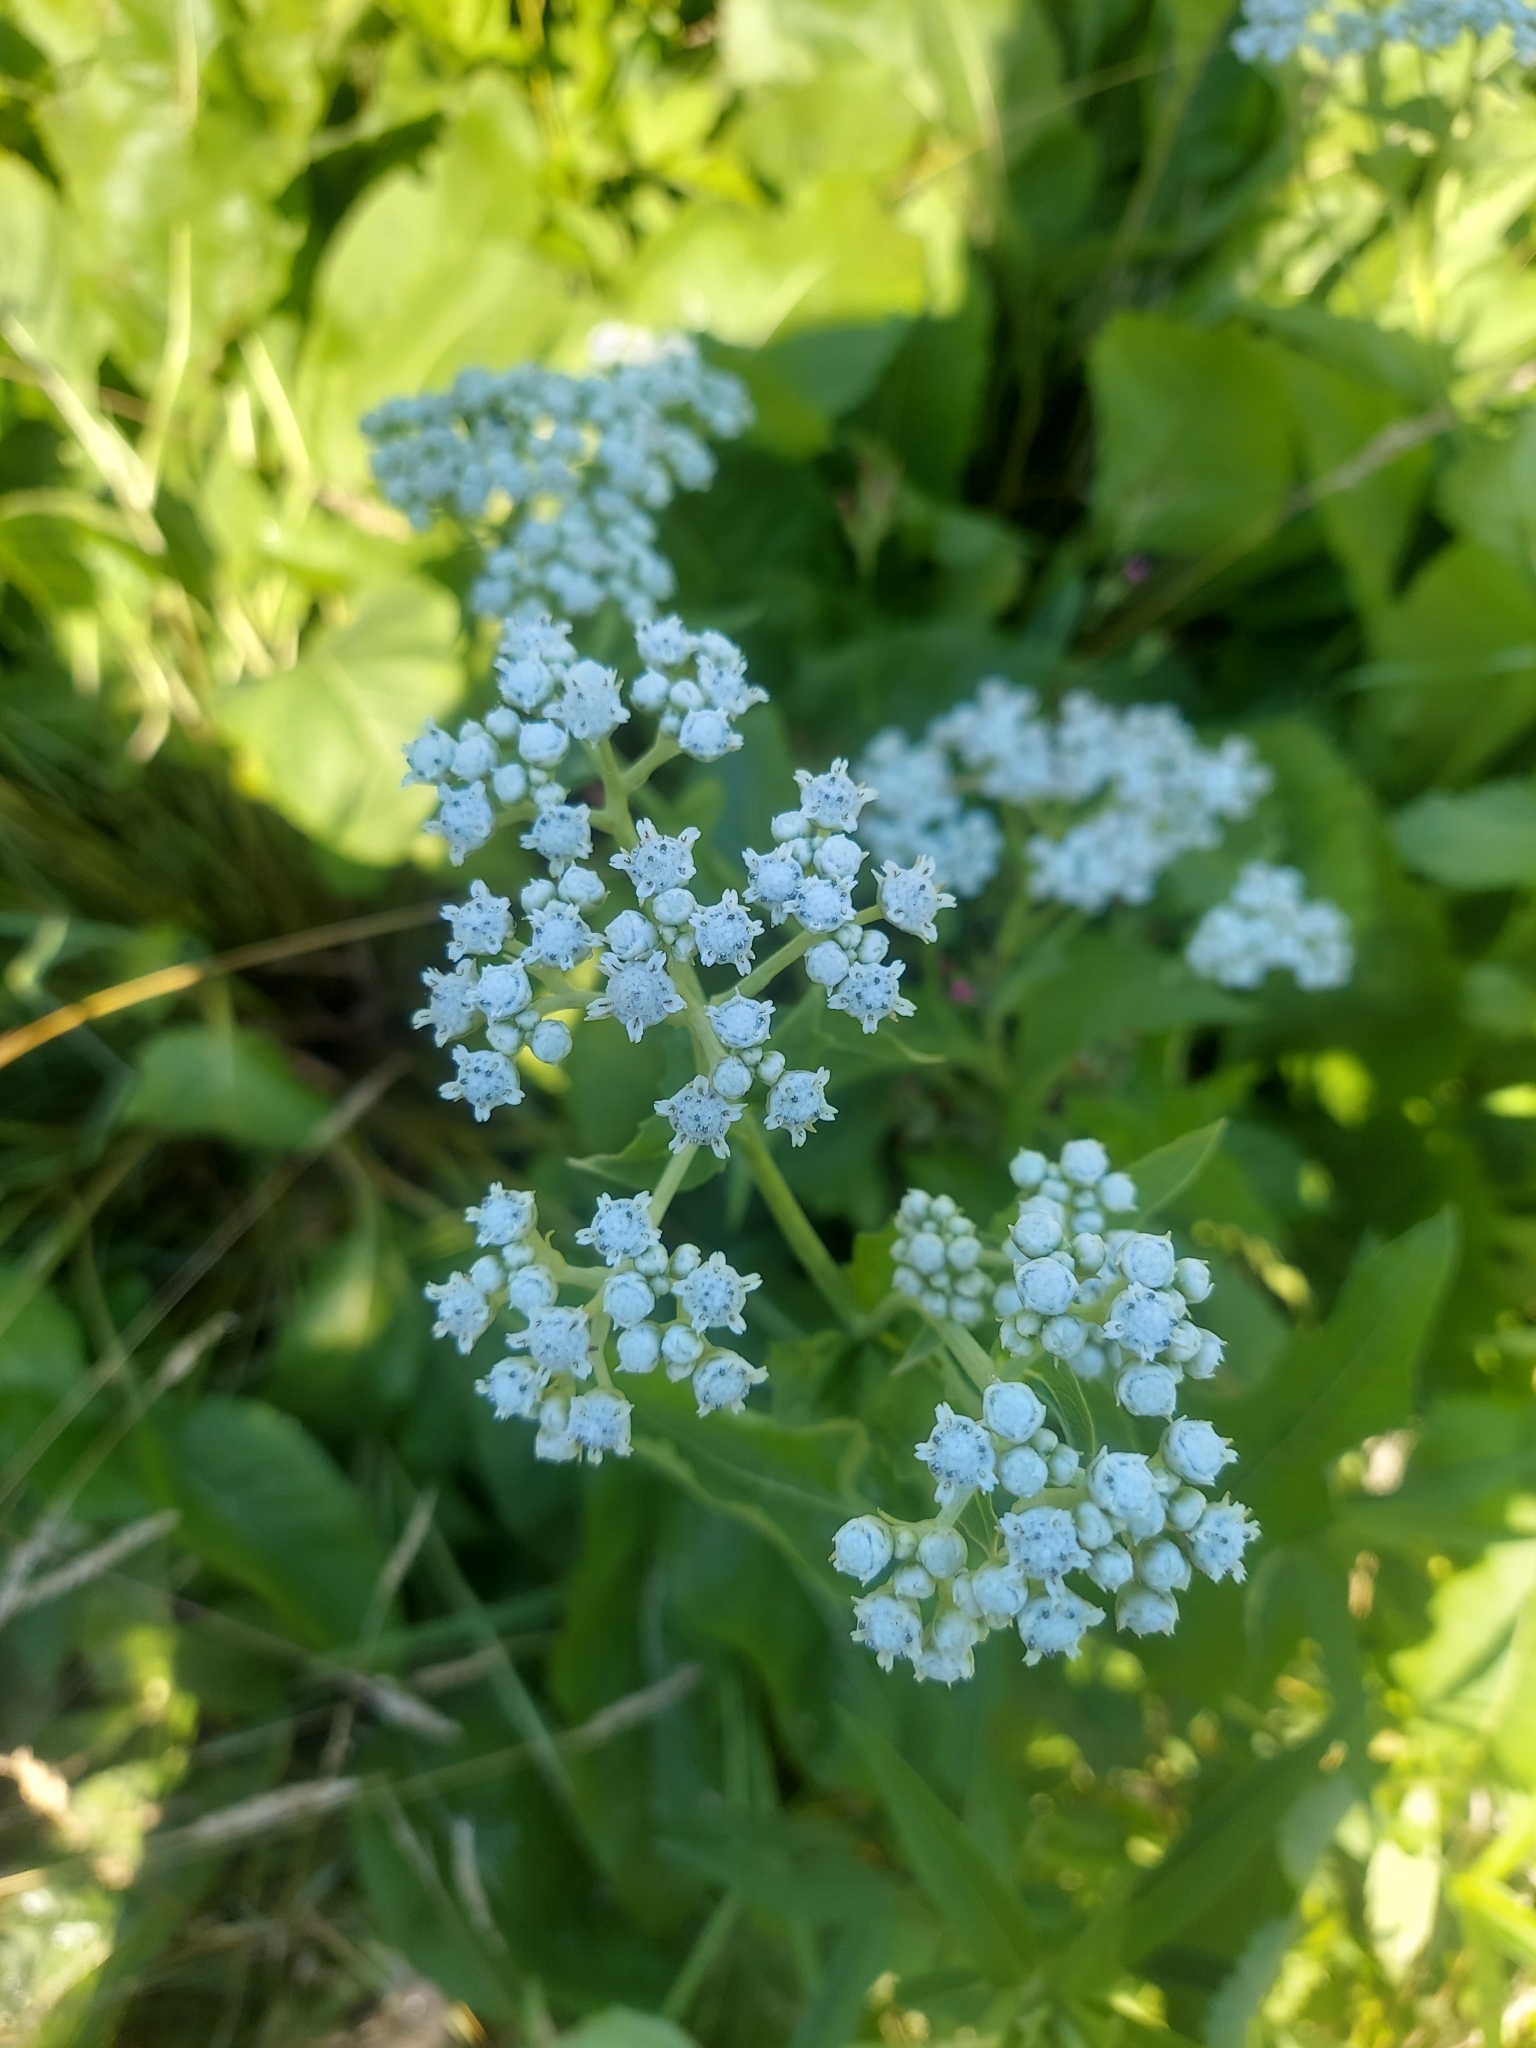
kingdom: Plantae
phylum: Tracheophyta
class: Magnoliopsida
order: Asterales
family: Asteraceae
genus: Parthenium
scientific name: Parthenium integrifolium
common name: American feverfew
